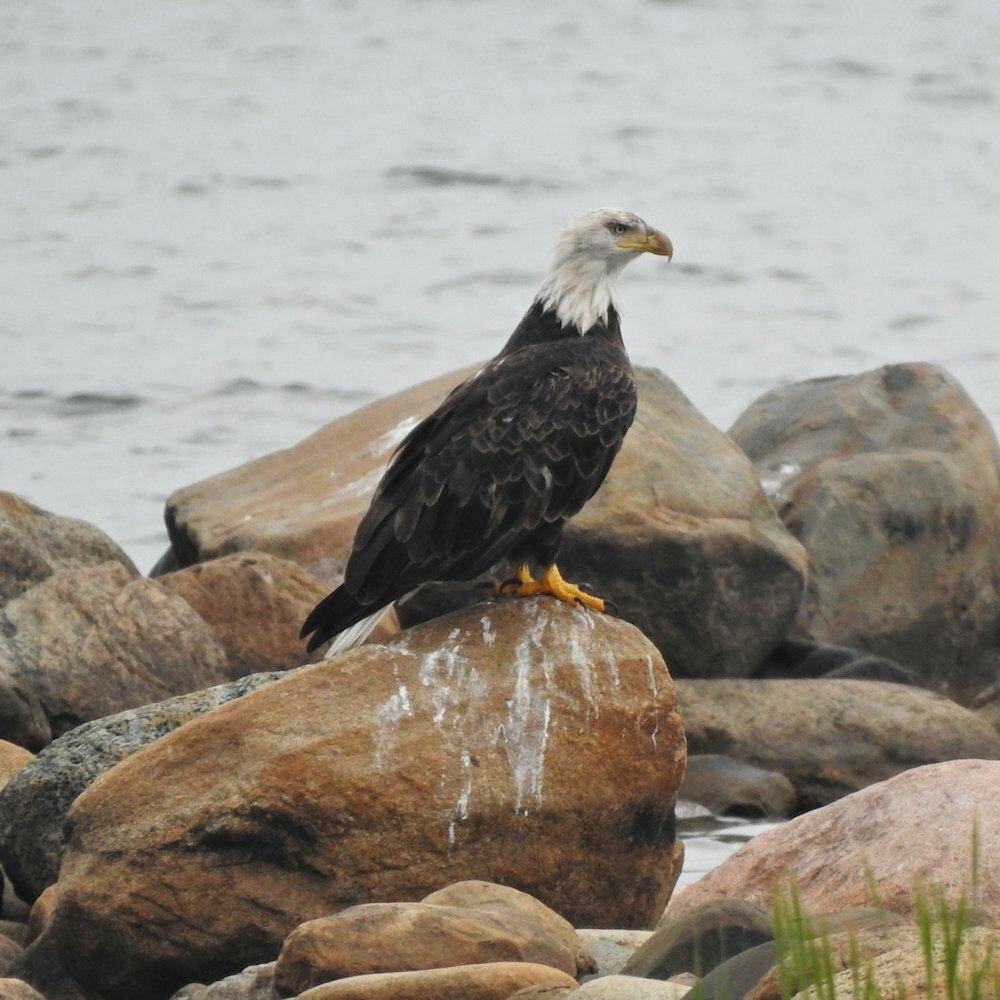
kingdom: Animalia
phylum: Chordata
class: Aves
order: Accipitriformes
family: Accipitridae
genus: Haliaeetus
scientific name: Haliaeetus leucocephalus
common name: Bald eagle
